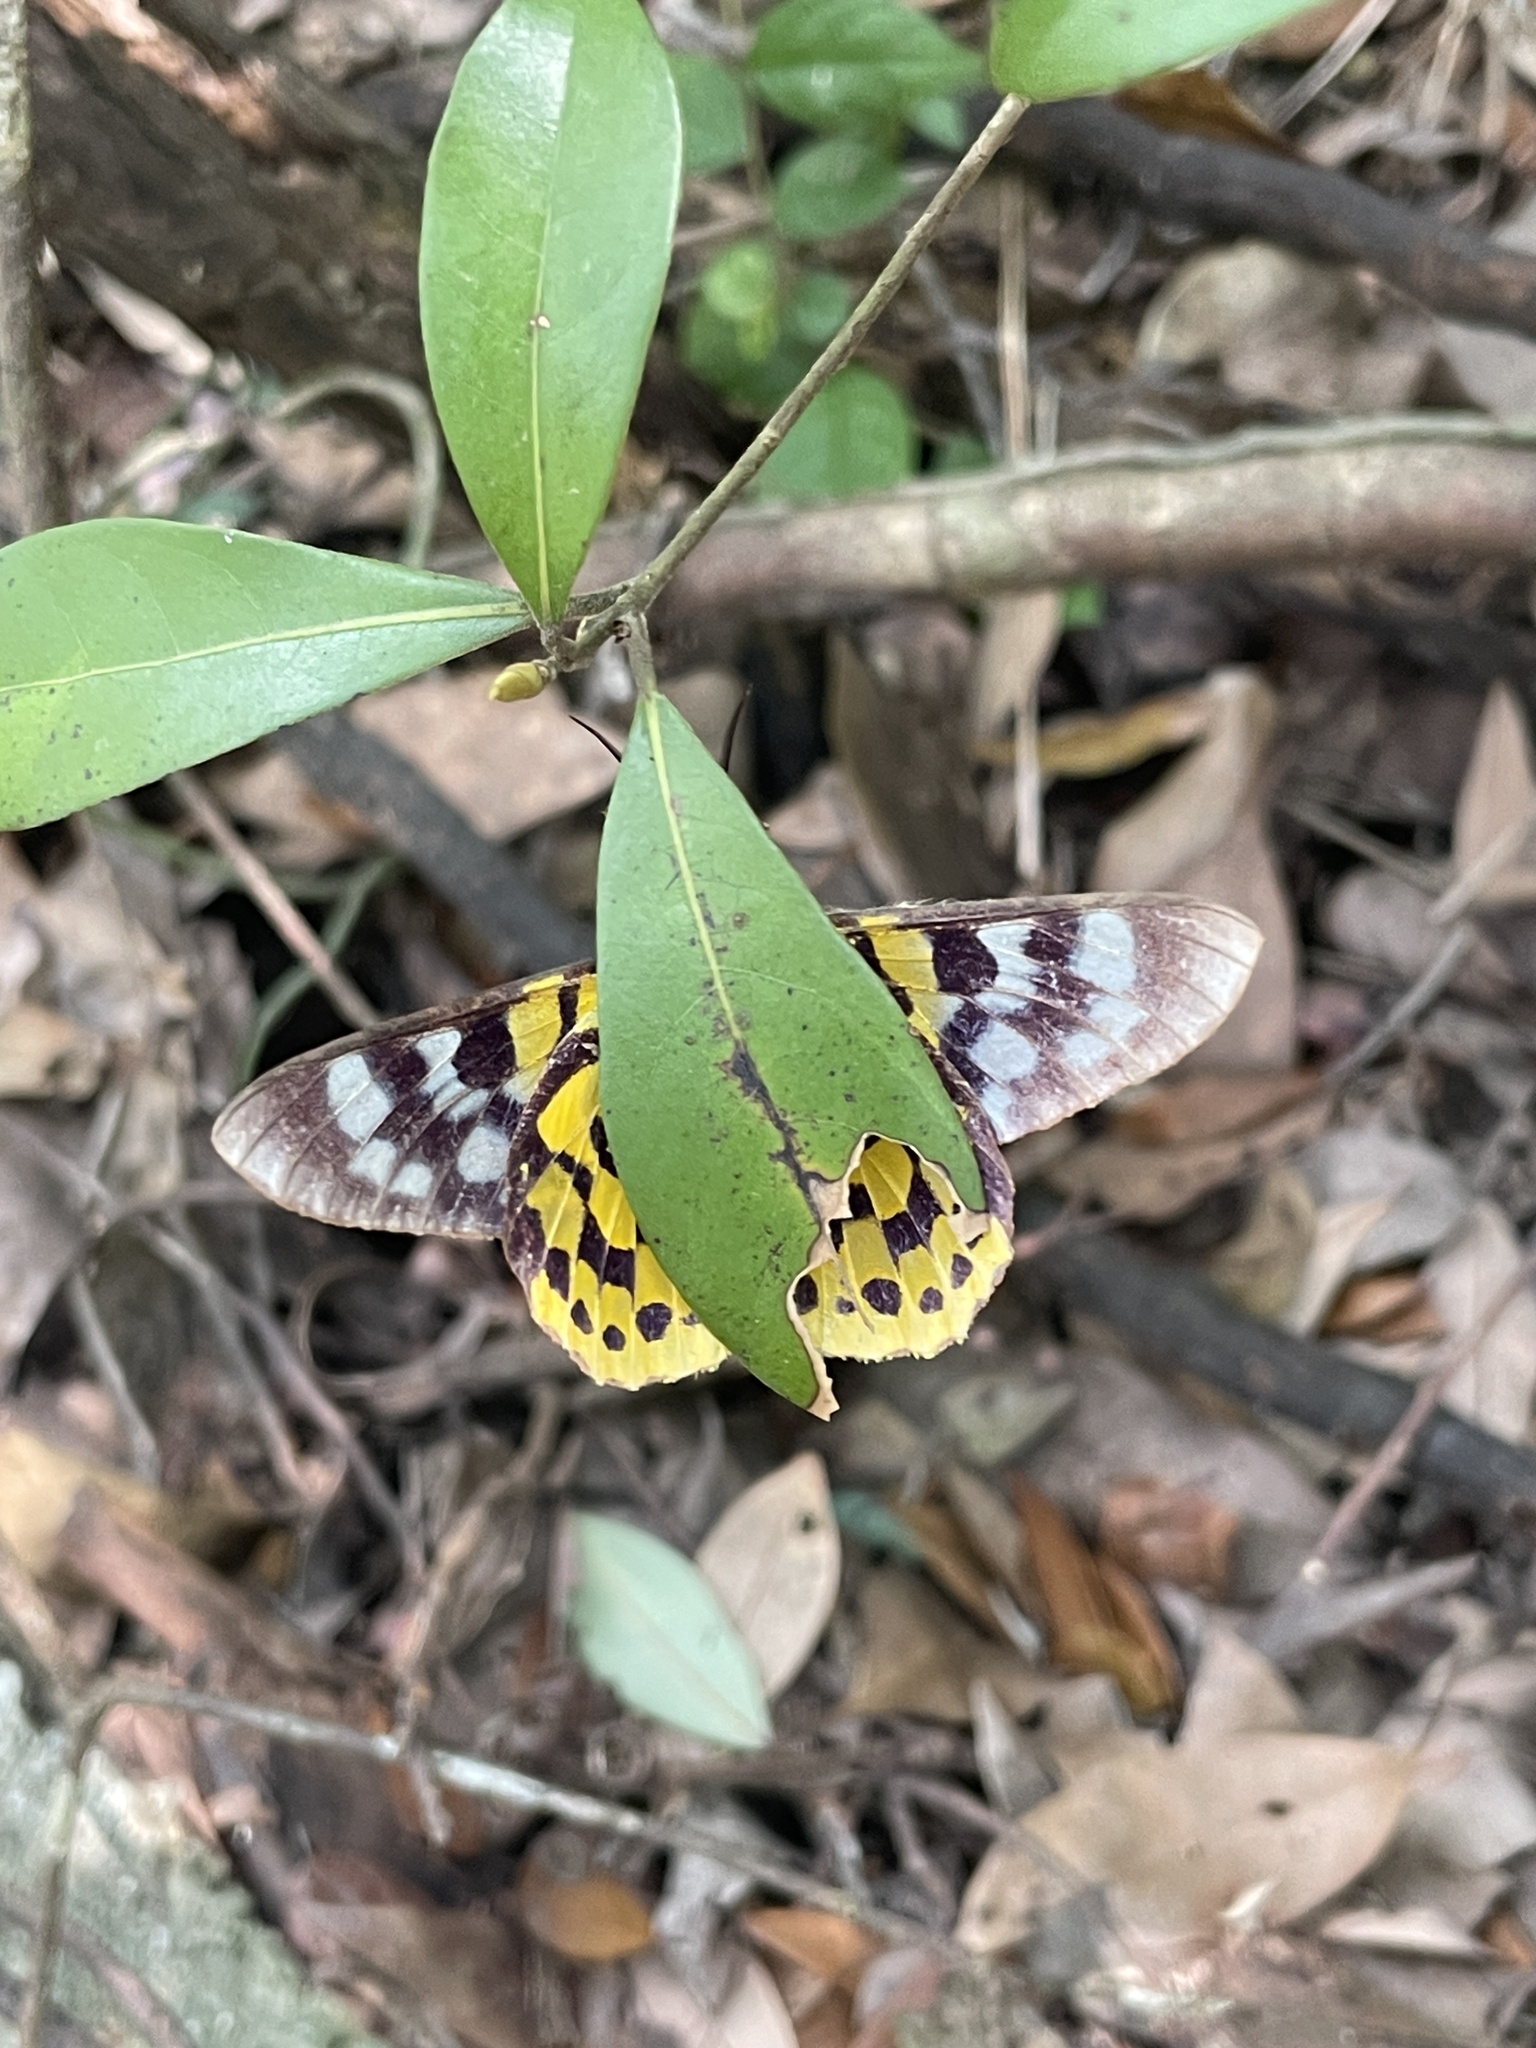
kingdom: Animalia
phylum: Arthropoda
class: Insecta
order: Lepidoptera
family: Geometridae
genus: Dysphania
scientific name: Dysphania militaris
